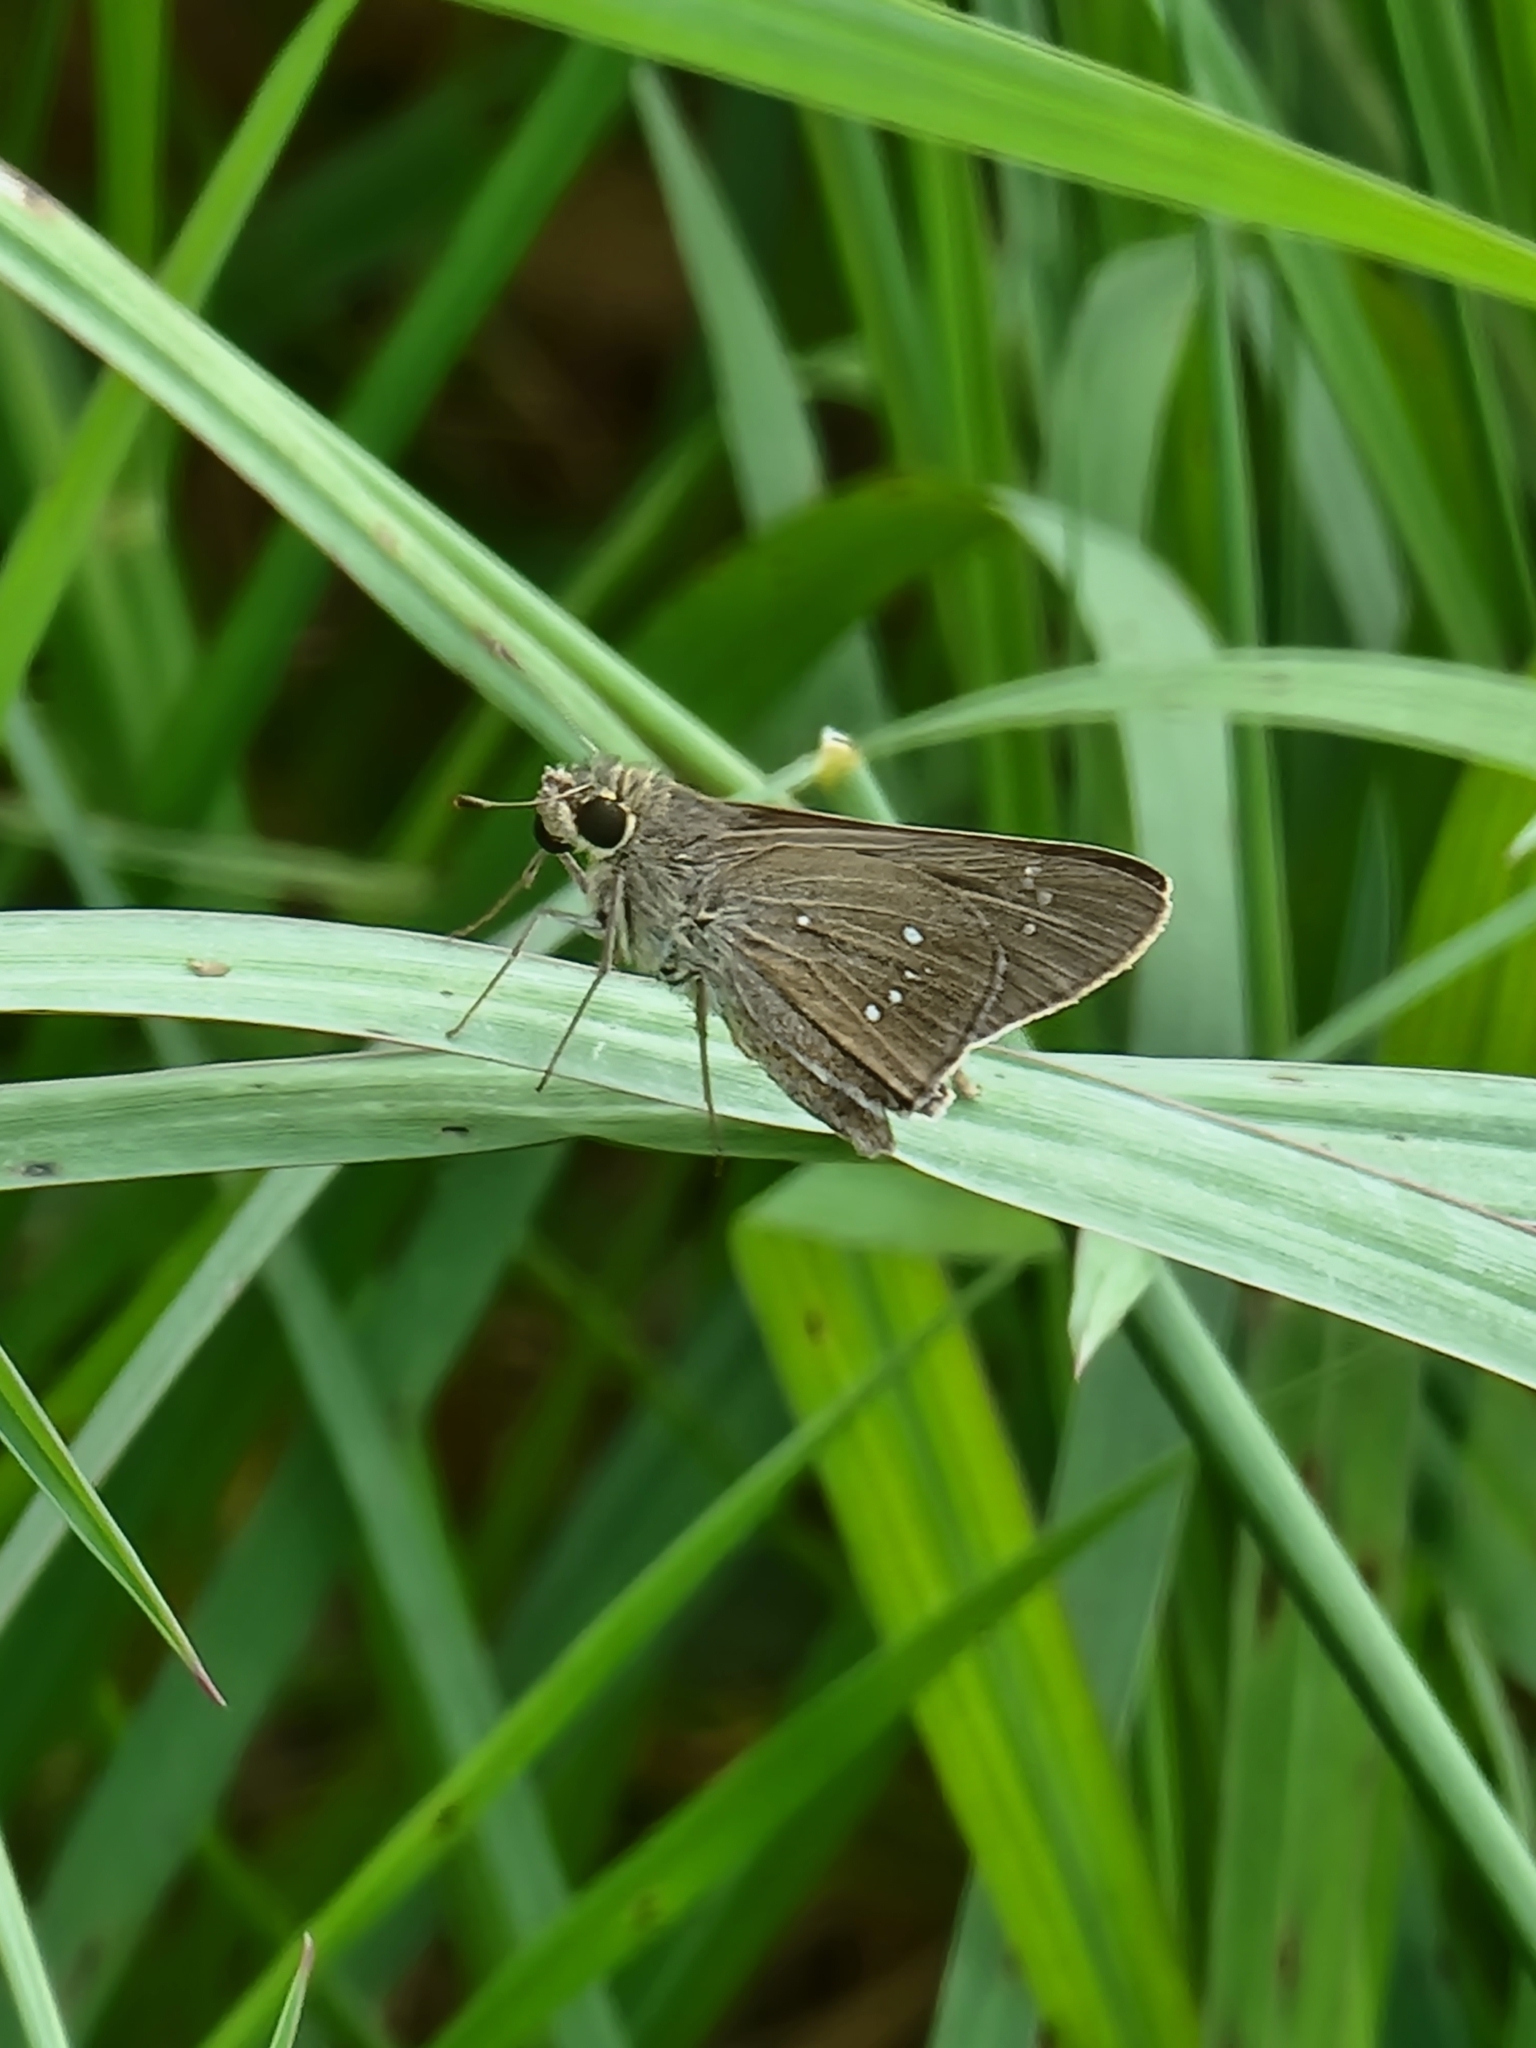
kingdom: Animalia
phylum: Arthropoda
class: Insecta
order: Lepidoptera
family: Hesperiidae
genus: Pelopidas
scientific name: Pelopidas agna
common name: Little branded swift
